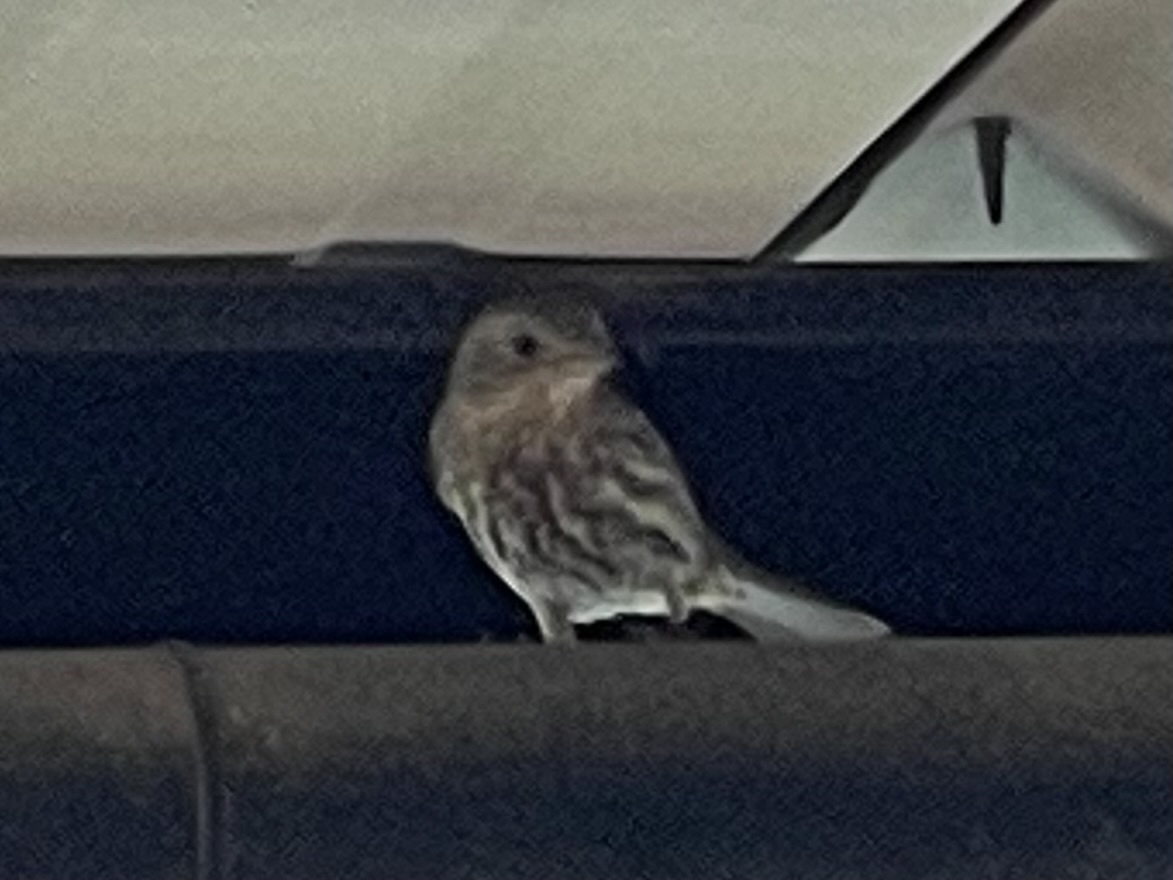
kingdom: Animalia
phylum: Chordata
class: Aves
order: Passeriformes
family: Fringillidae
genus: Haemorhous
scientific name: Haemorhous mexicanus
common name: House finch
